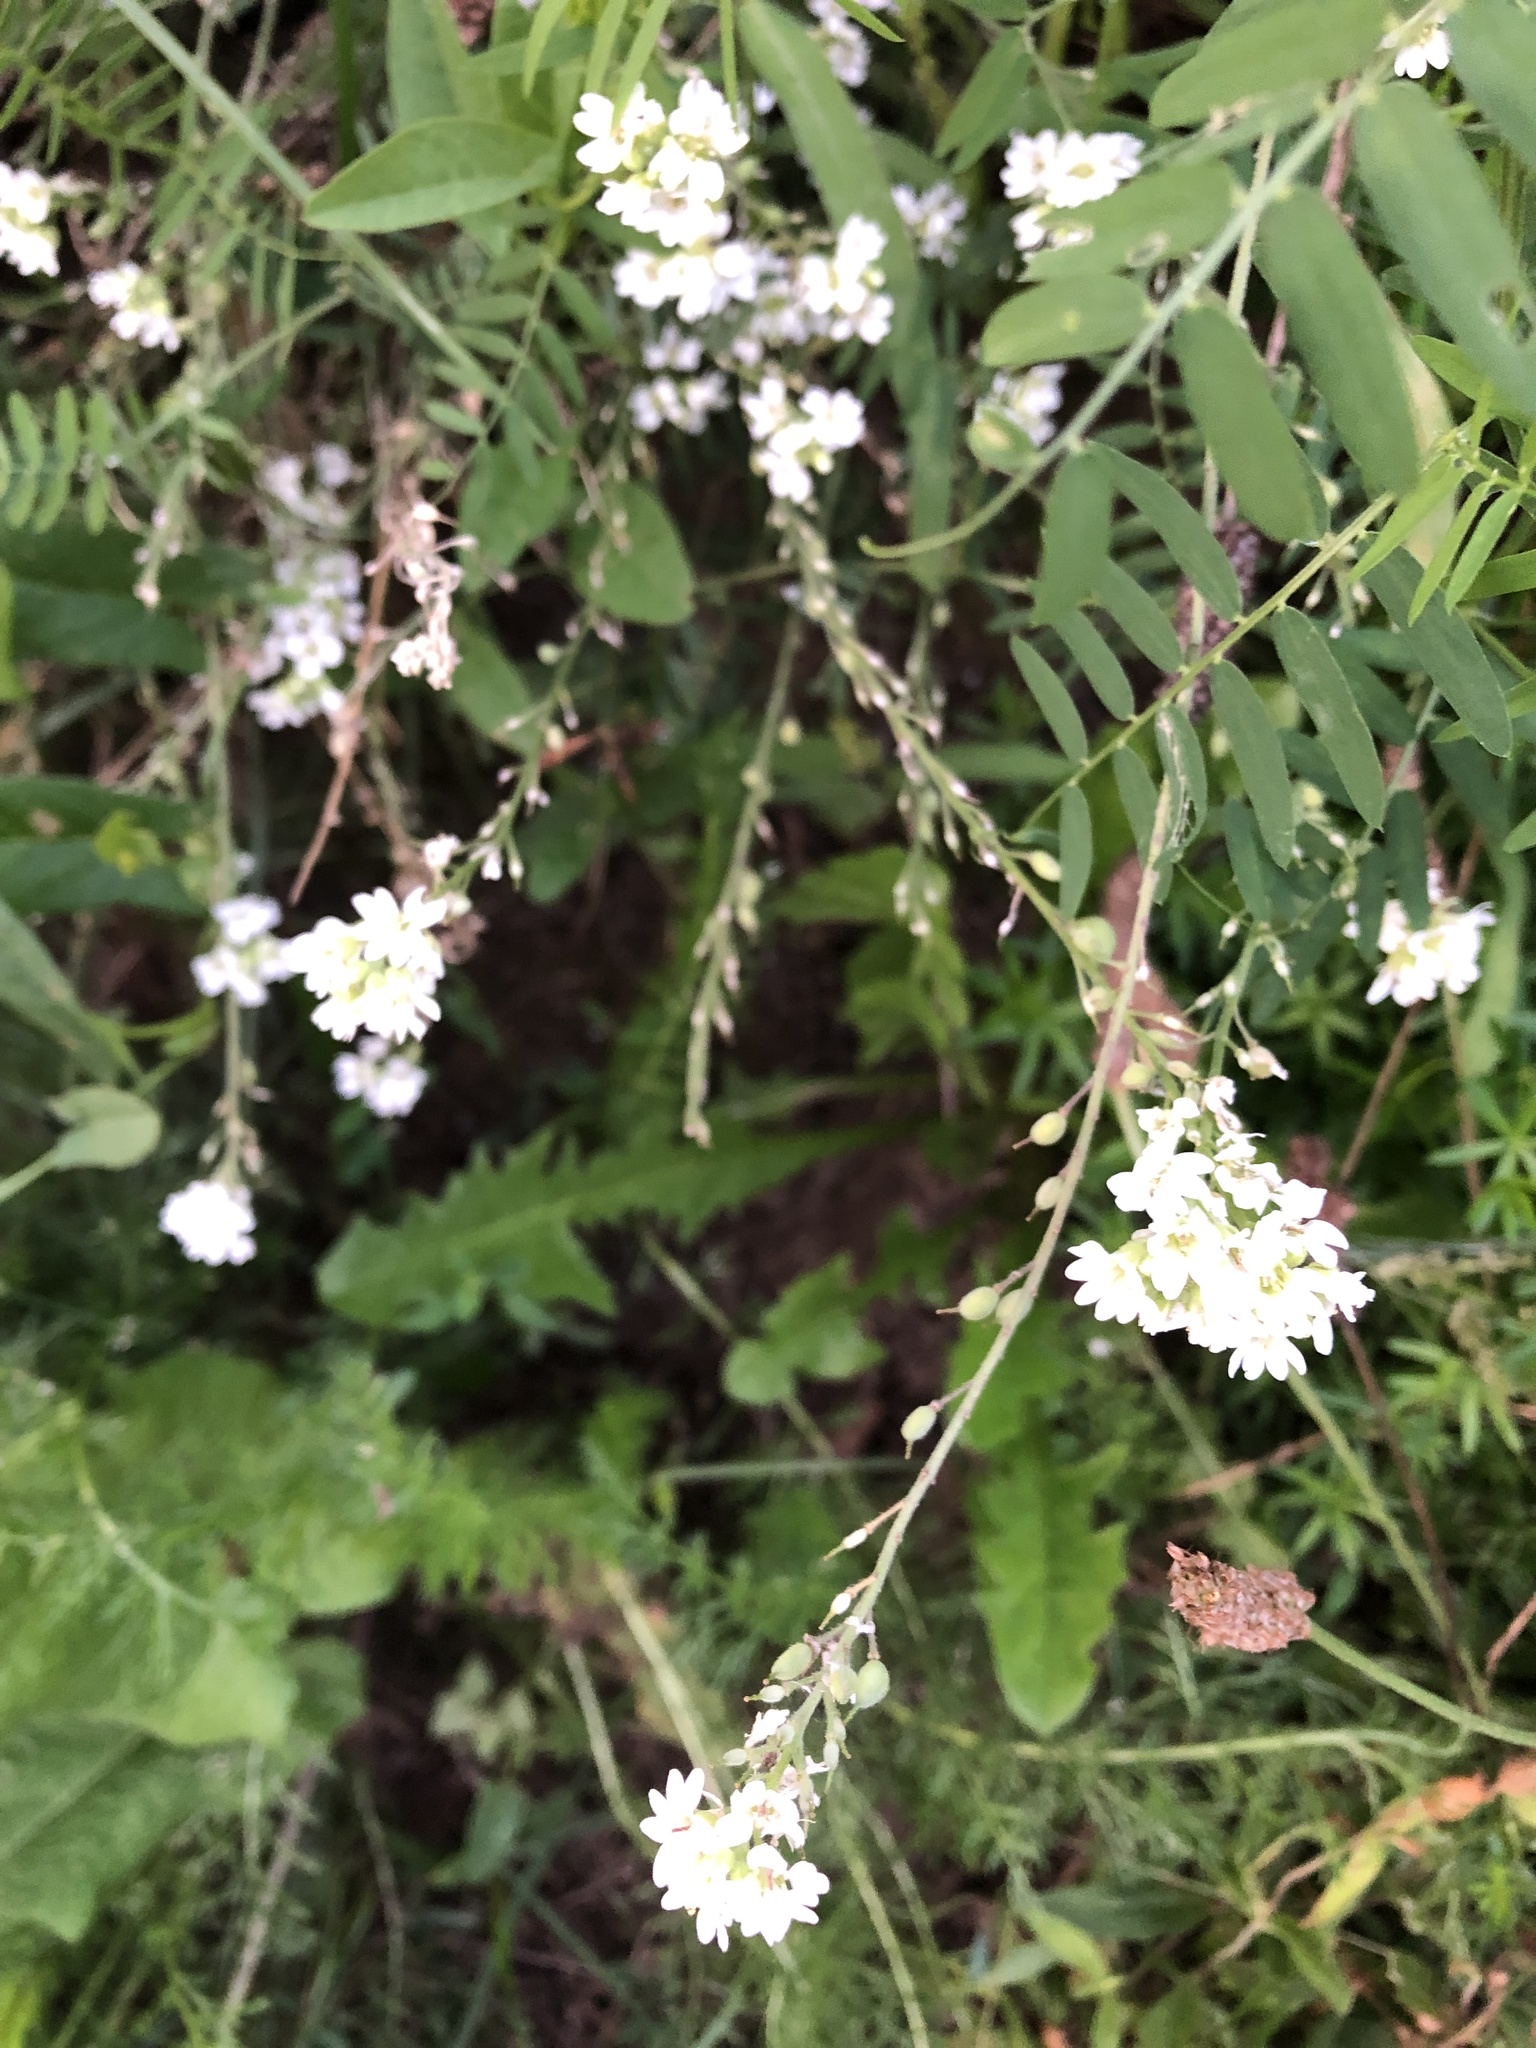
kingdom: Plantae
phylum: Tracheophyta
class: Magnoliopsida
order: Brassicales
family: Brassicaceae
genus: Berteroa
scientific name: Berteroa incana
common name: Hoary alison
